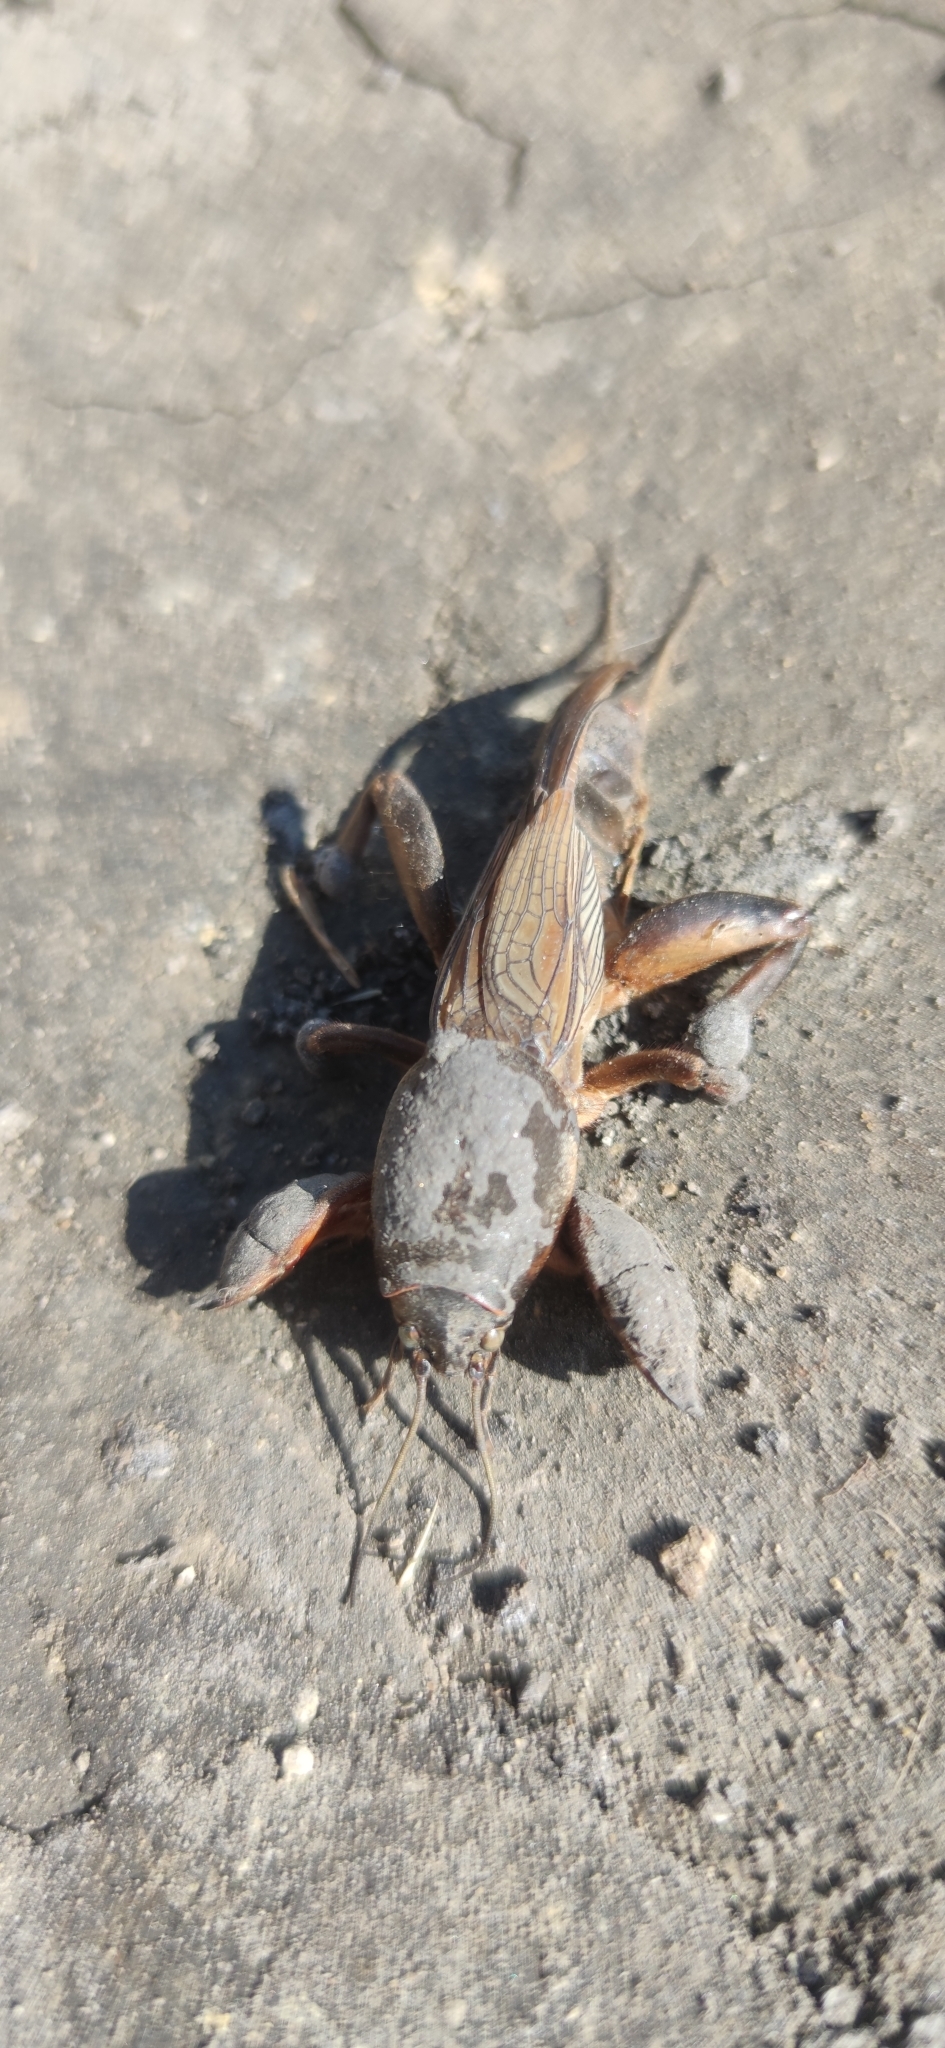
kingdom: Animalia
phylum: Arthropoda
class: Insecta
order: Orthoptera
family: Gryllotalpidae
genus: Gryllotalpa
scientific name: Gryllotalpa gryllotalpa
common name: European mole cricket
